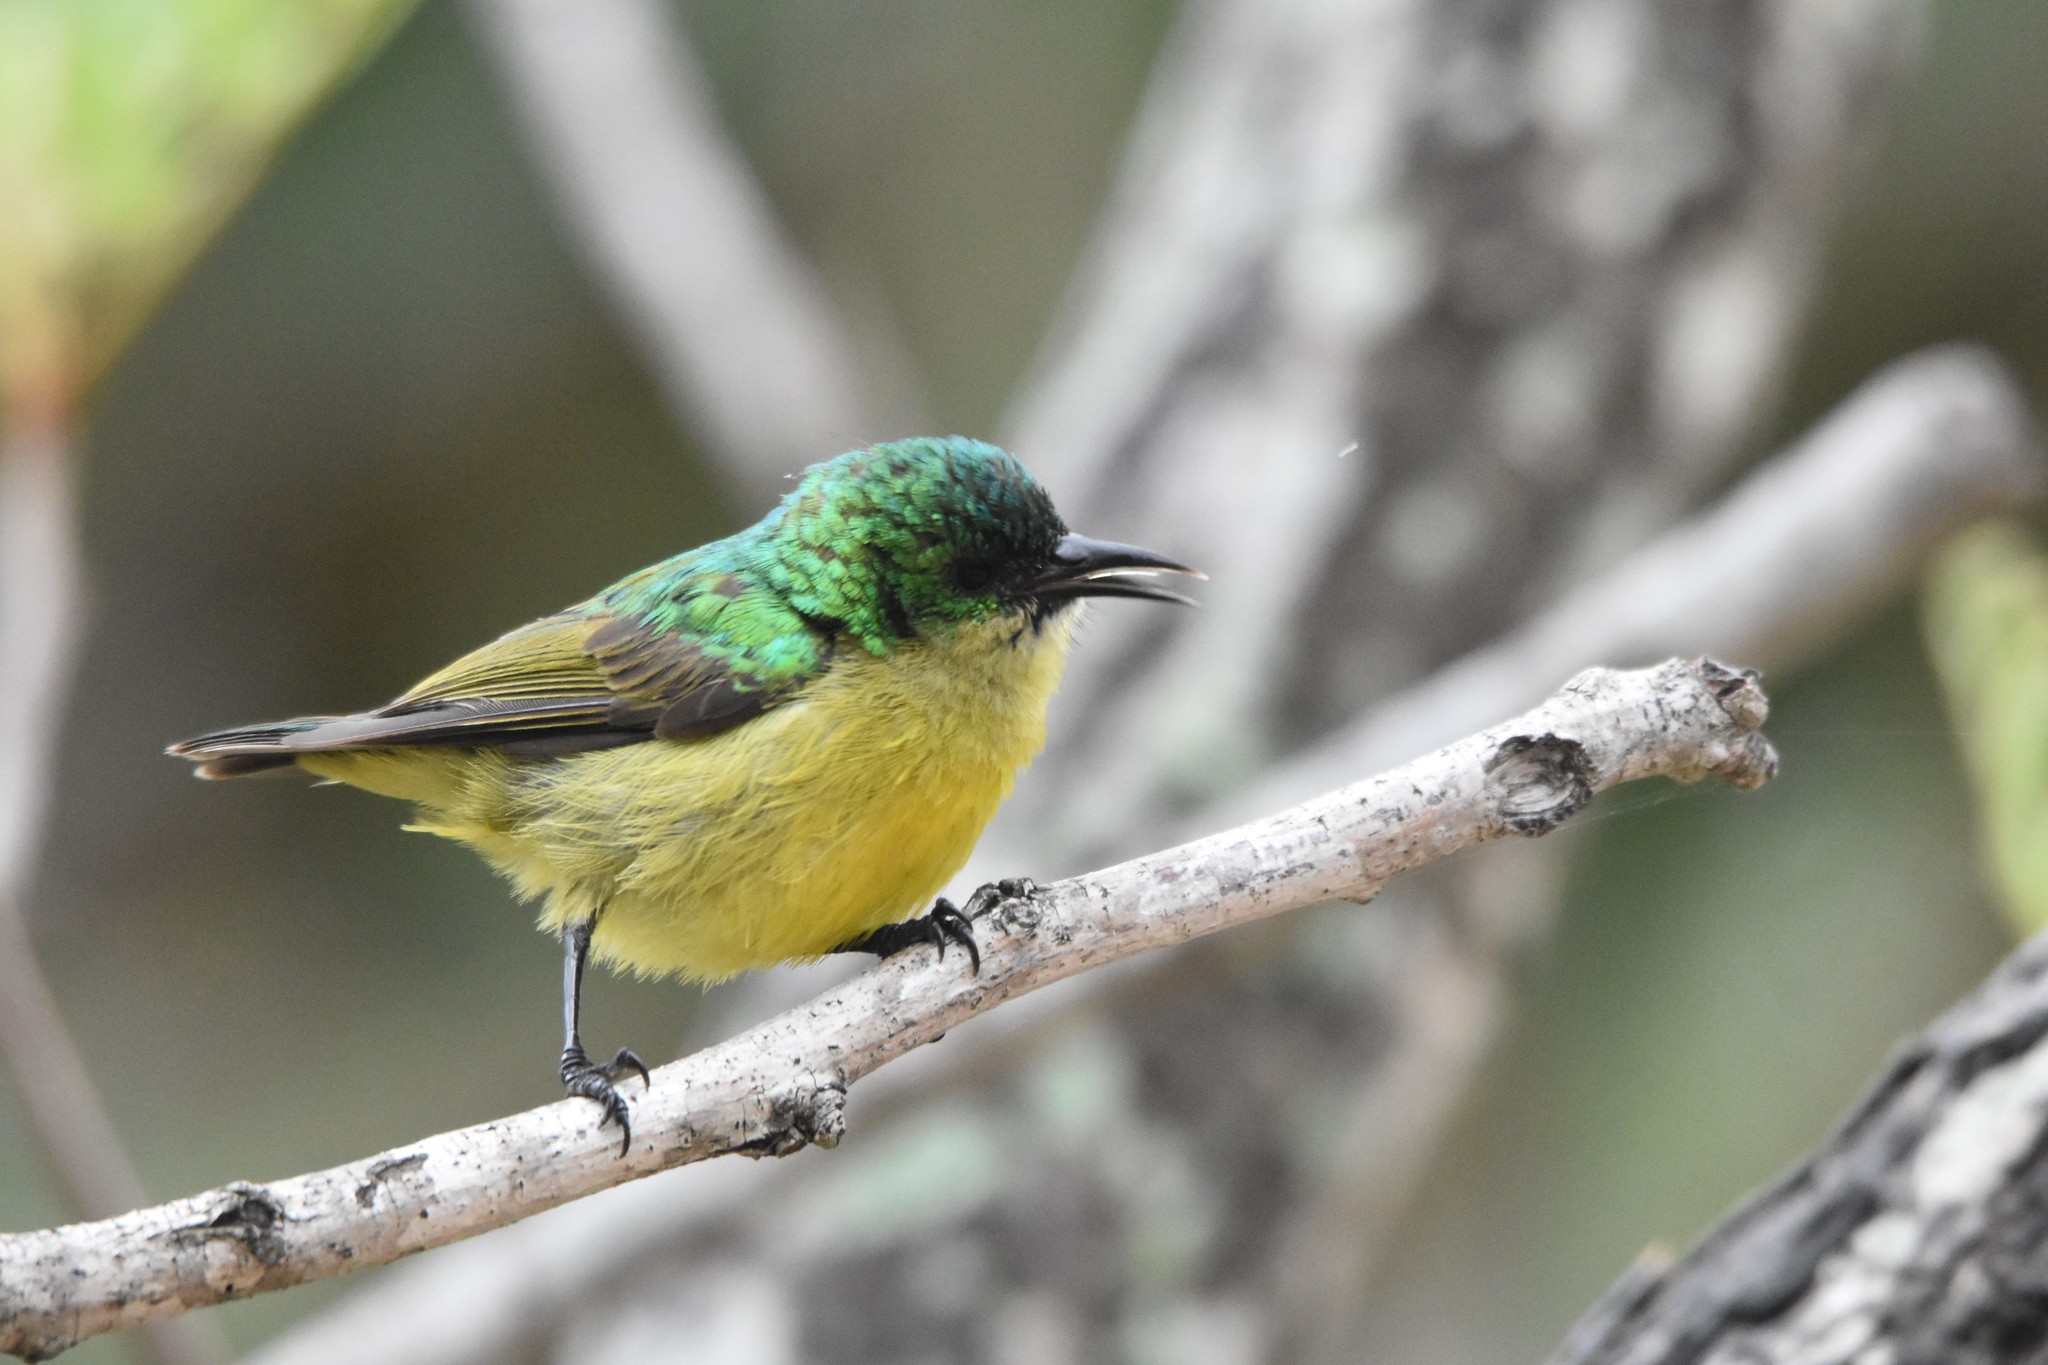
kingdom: Animalia
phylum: Chordata
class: Aves
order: Passeriformes
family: Nectariniidae
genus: Hedydipna
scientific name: Hedydipna collaris
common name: Collared sunbird
